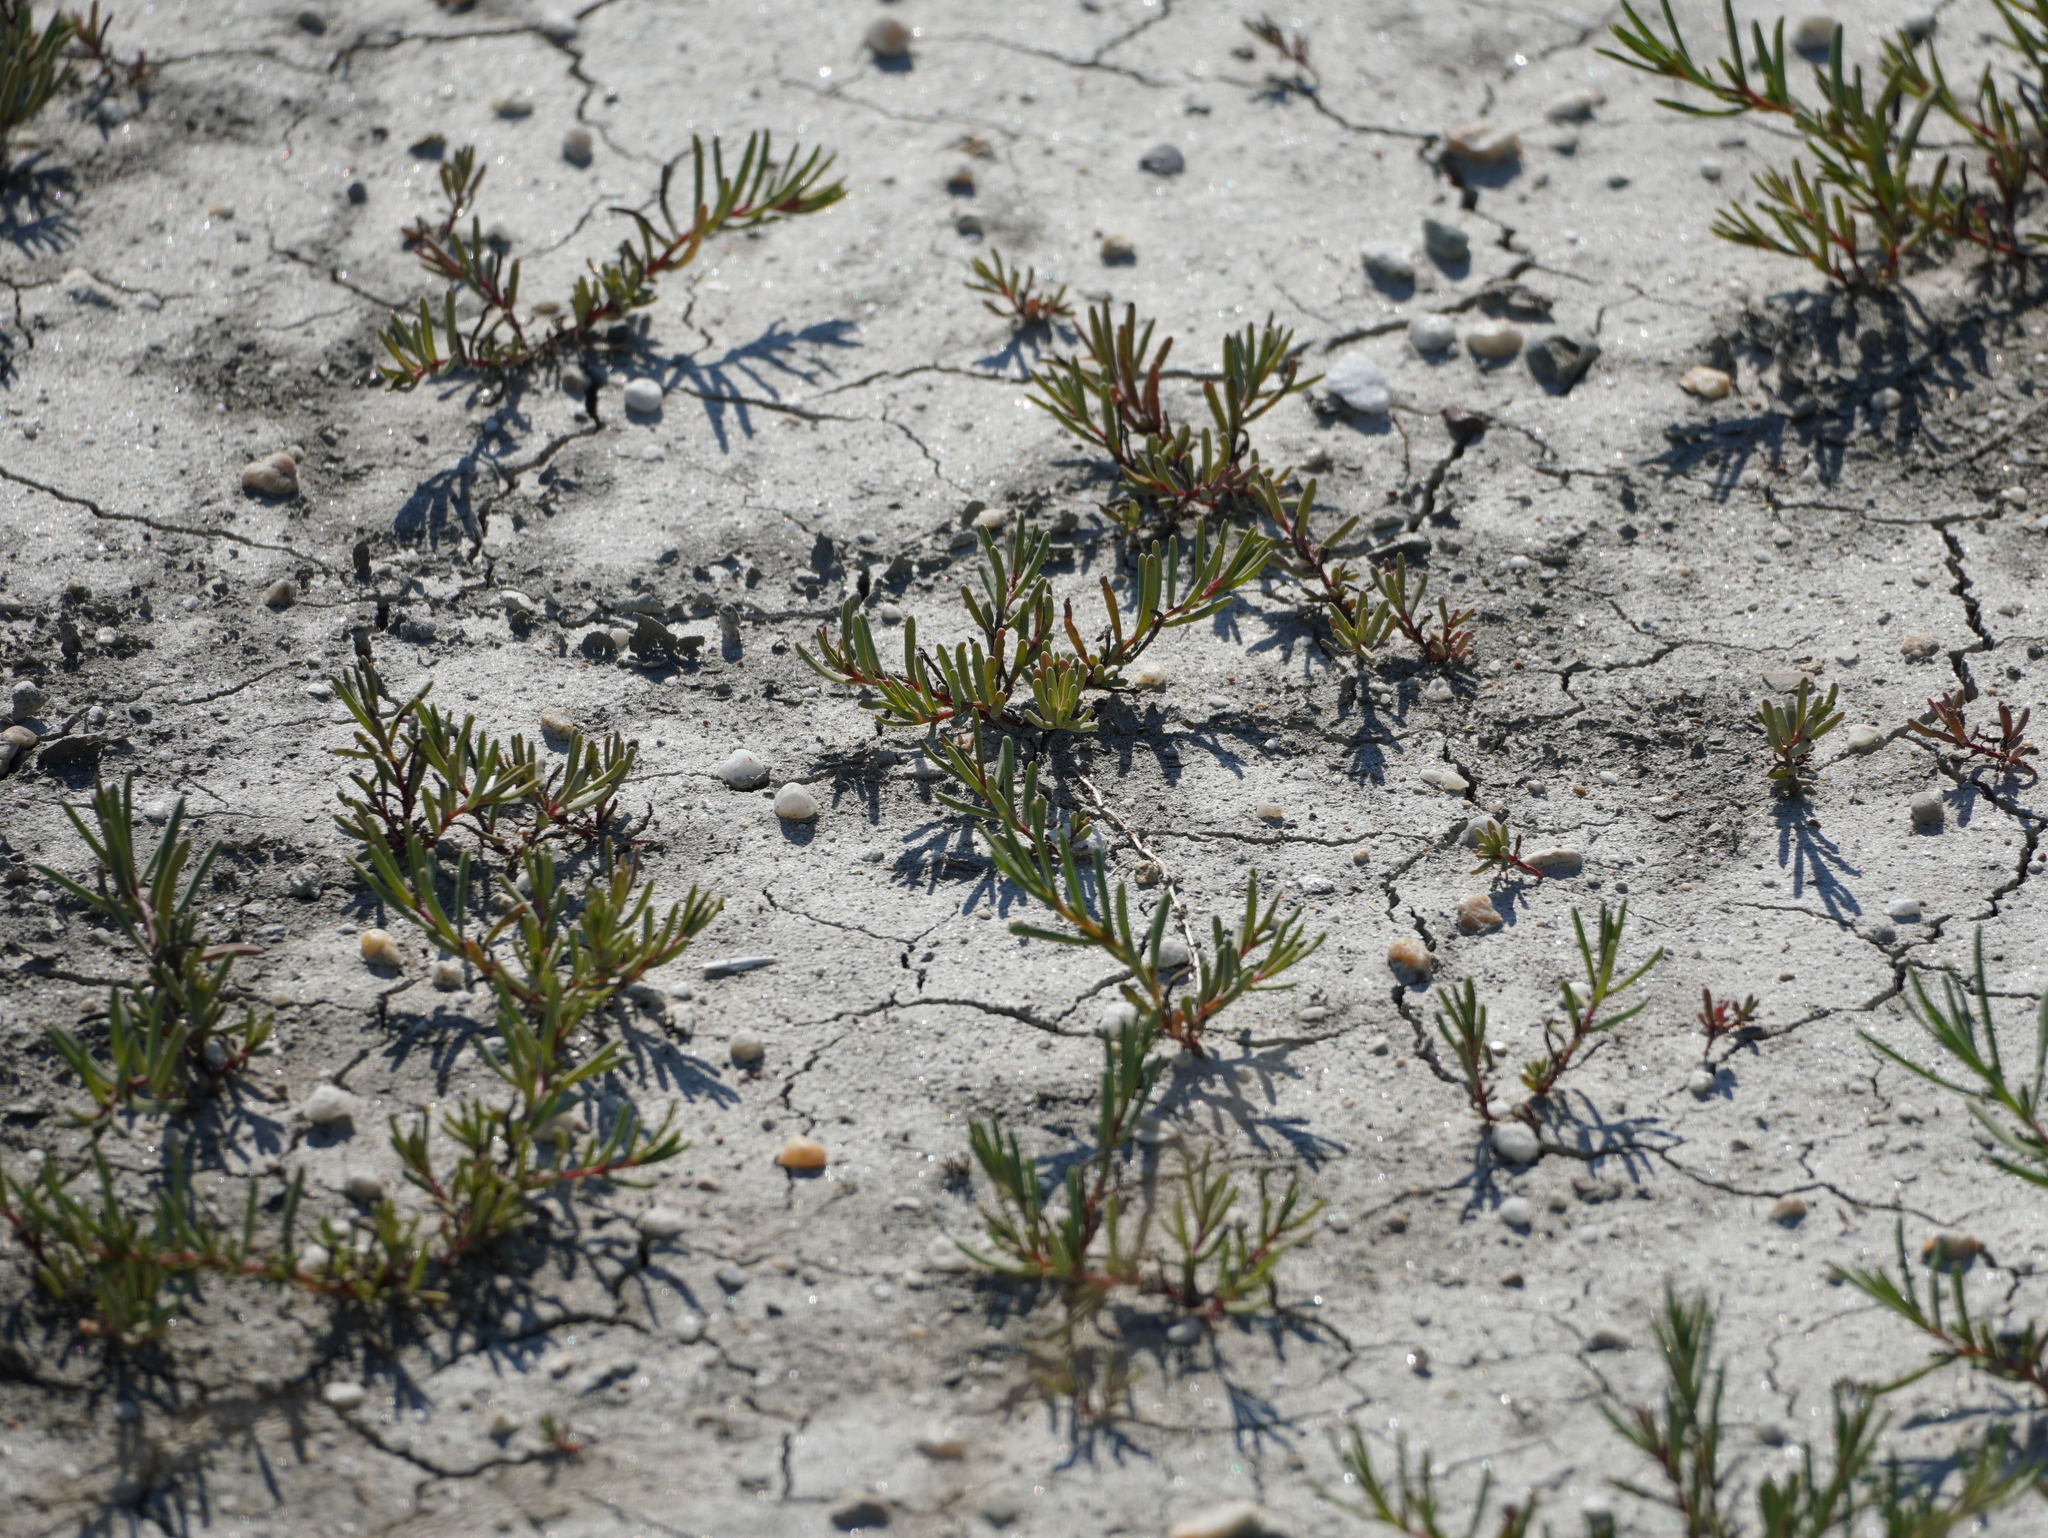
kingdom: Plantae
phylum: Tracheophyta
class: Magnoliopsida
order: Caryophyllales
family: Amaranthaceae
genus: Suaeda
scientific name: Suaeda pannonica
